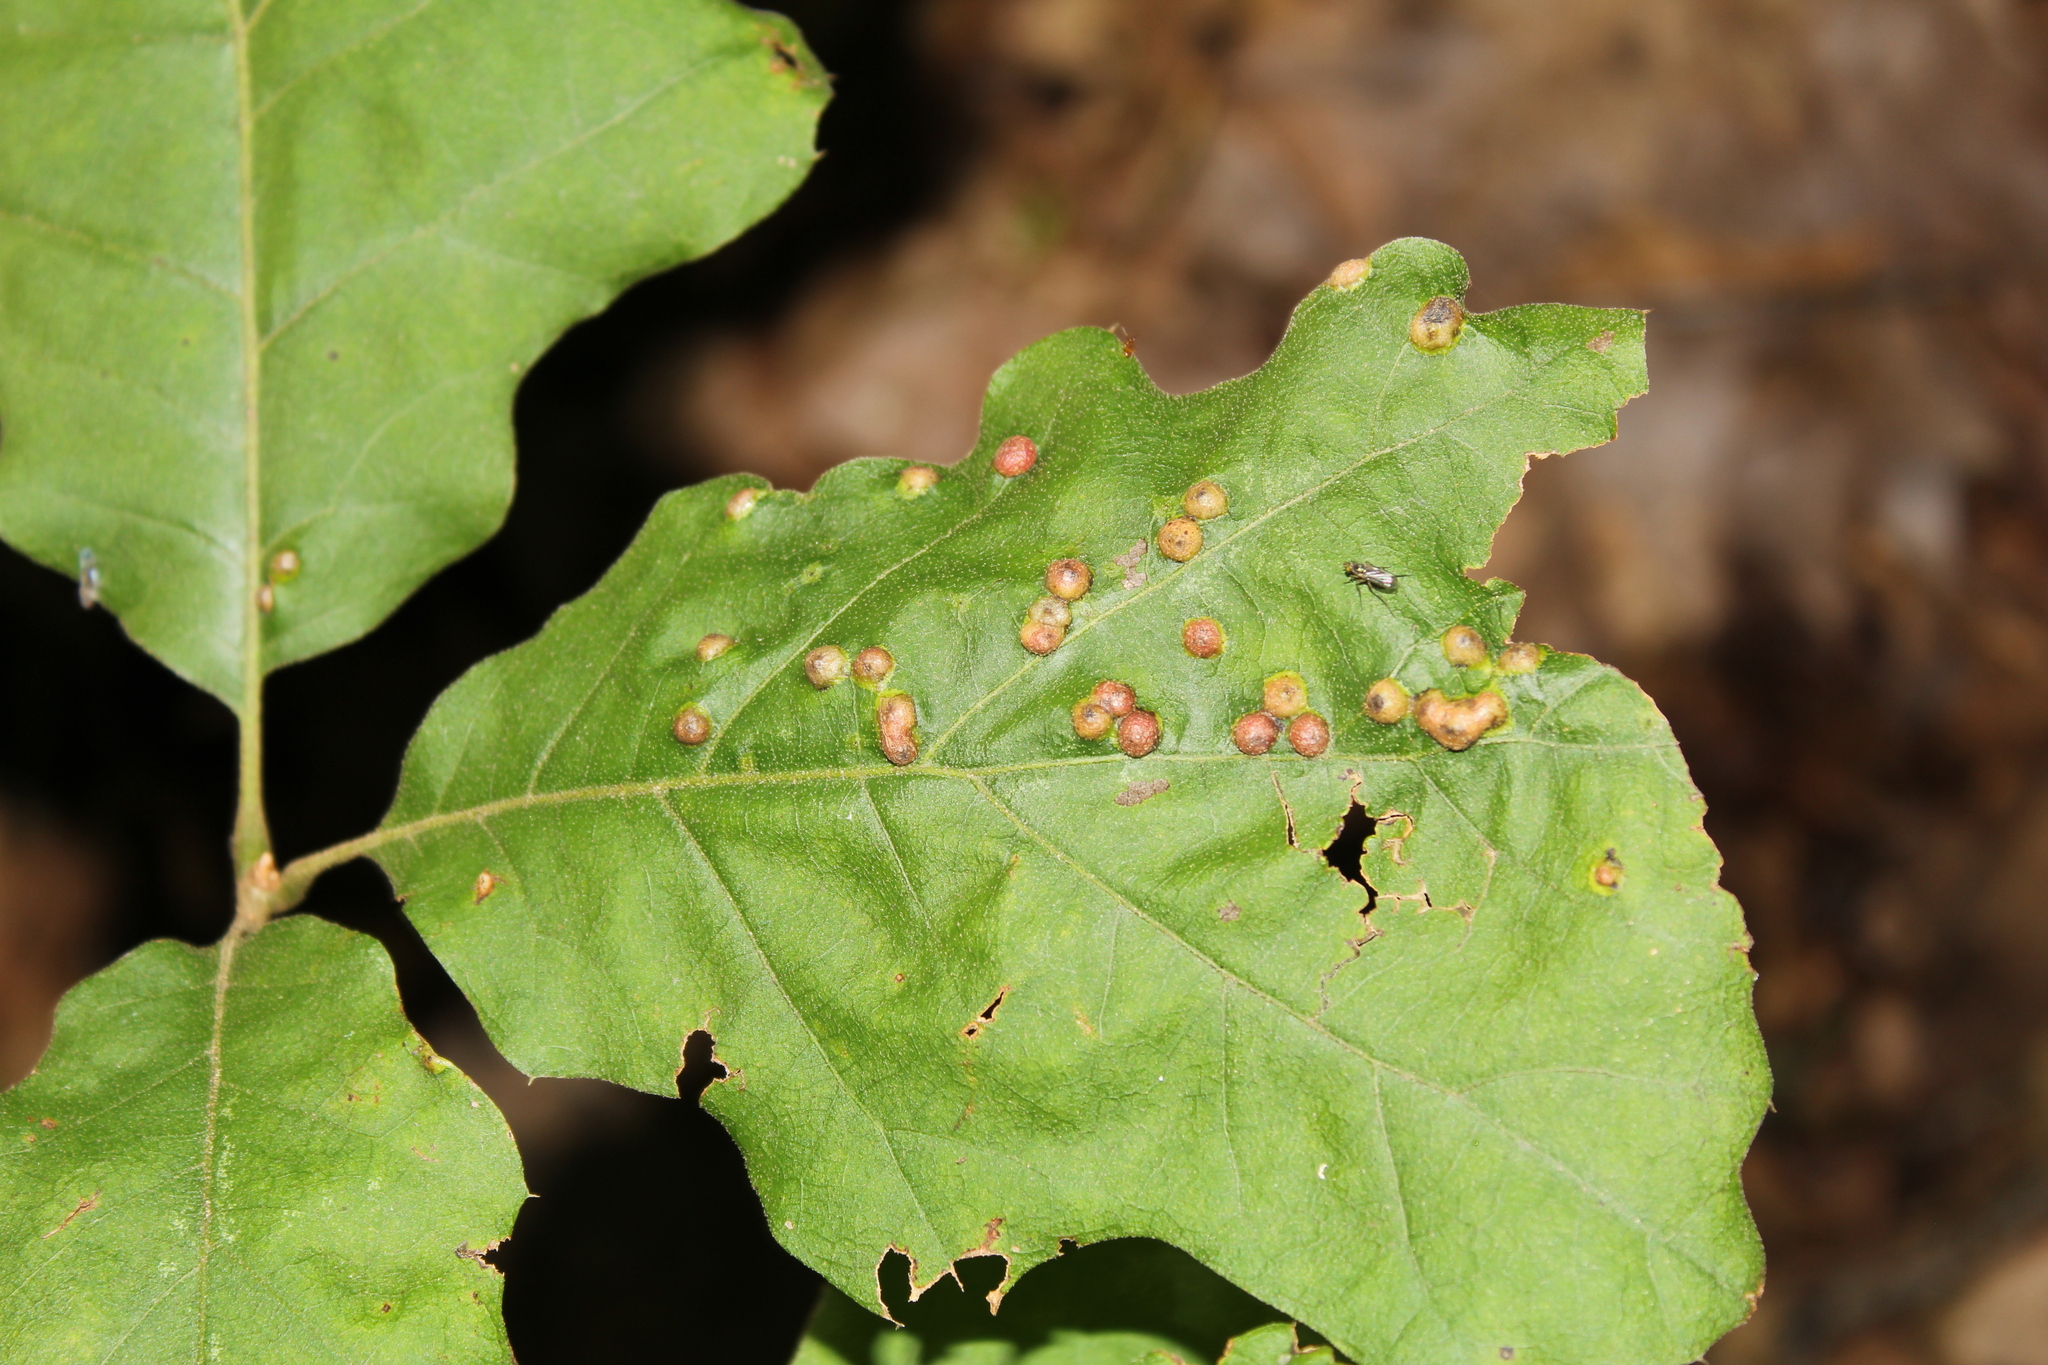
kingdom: Animalia
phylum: Arthropoda
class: Insecta
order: Diptera
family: Cecidomyiidae
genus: Polystepha
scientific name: Polystepha pilulae
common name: Oak leaf gall midge
